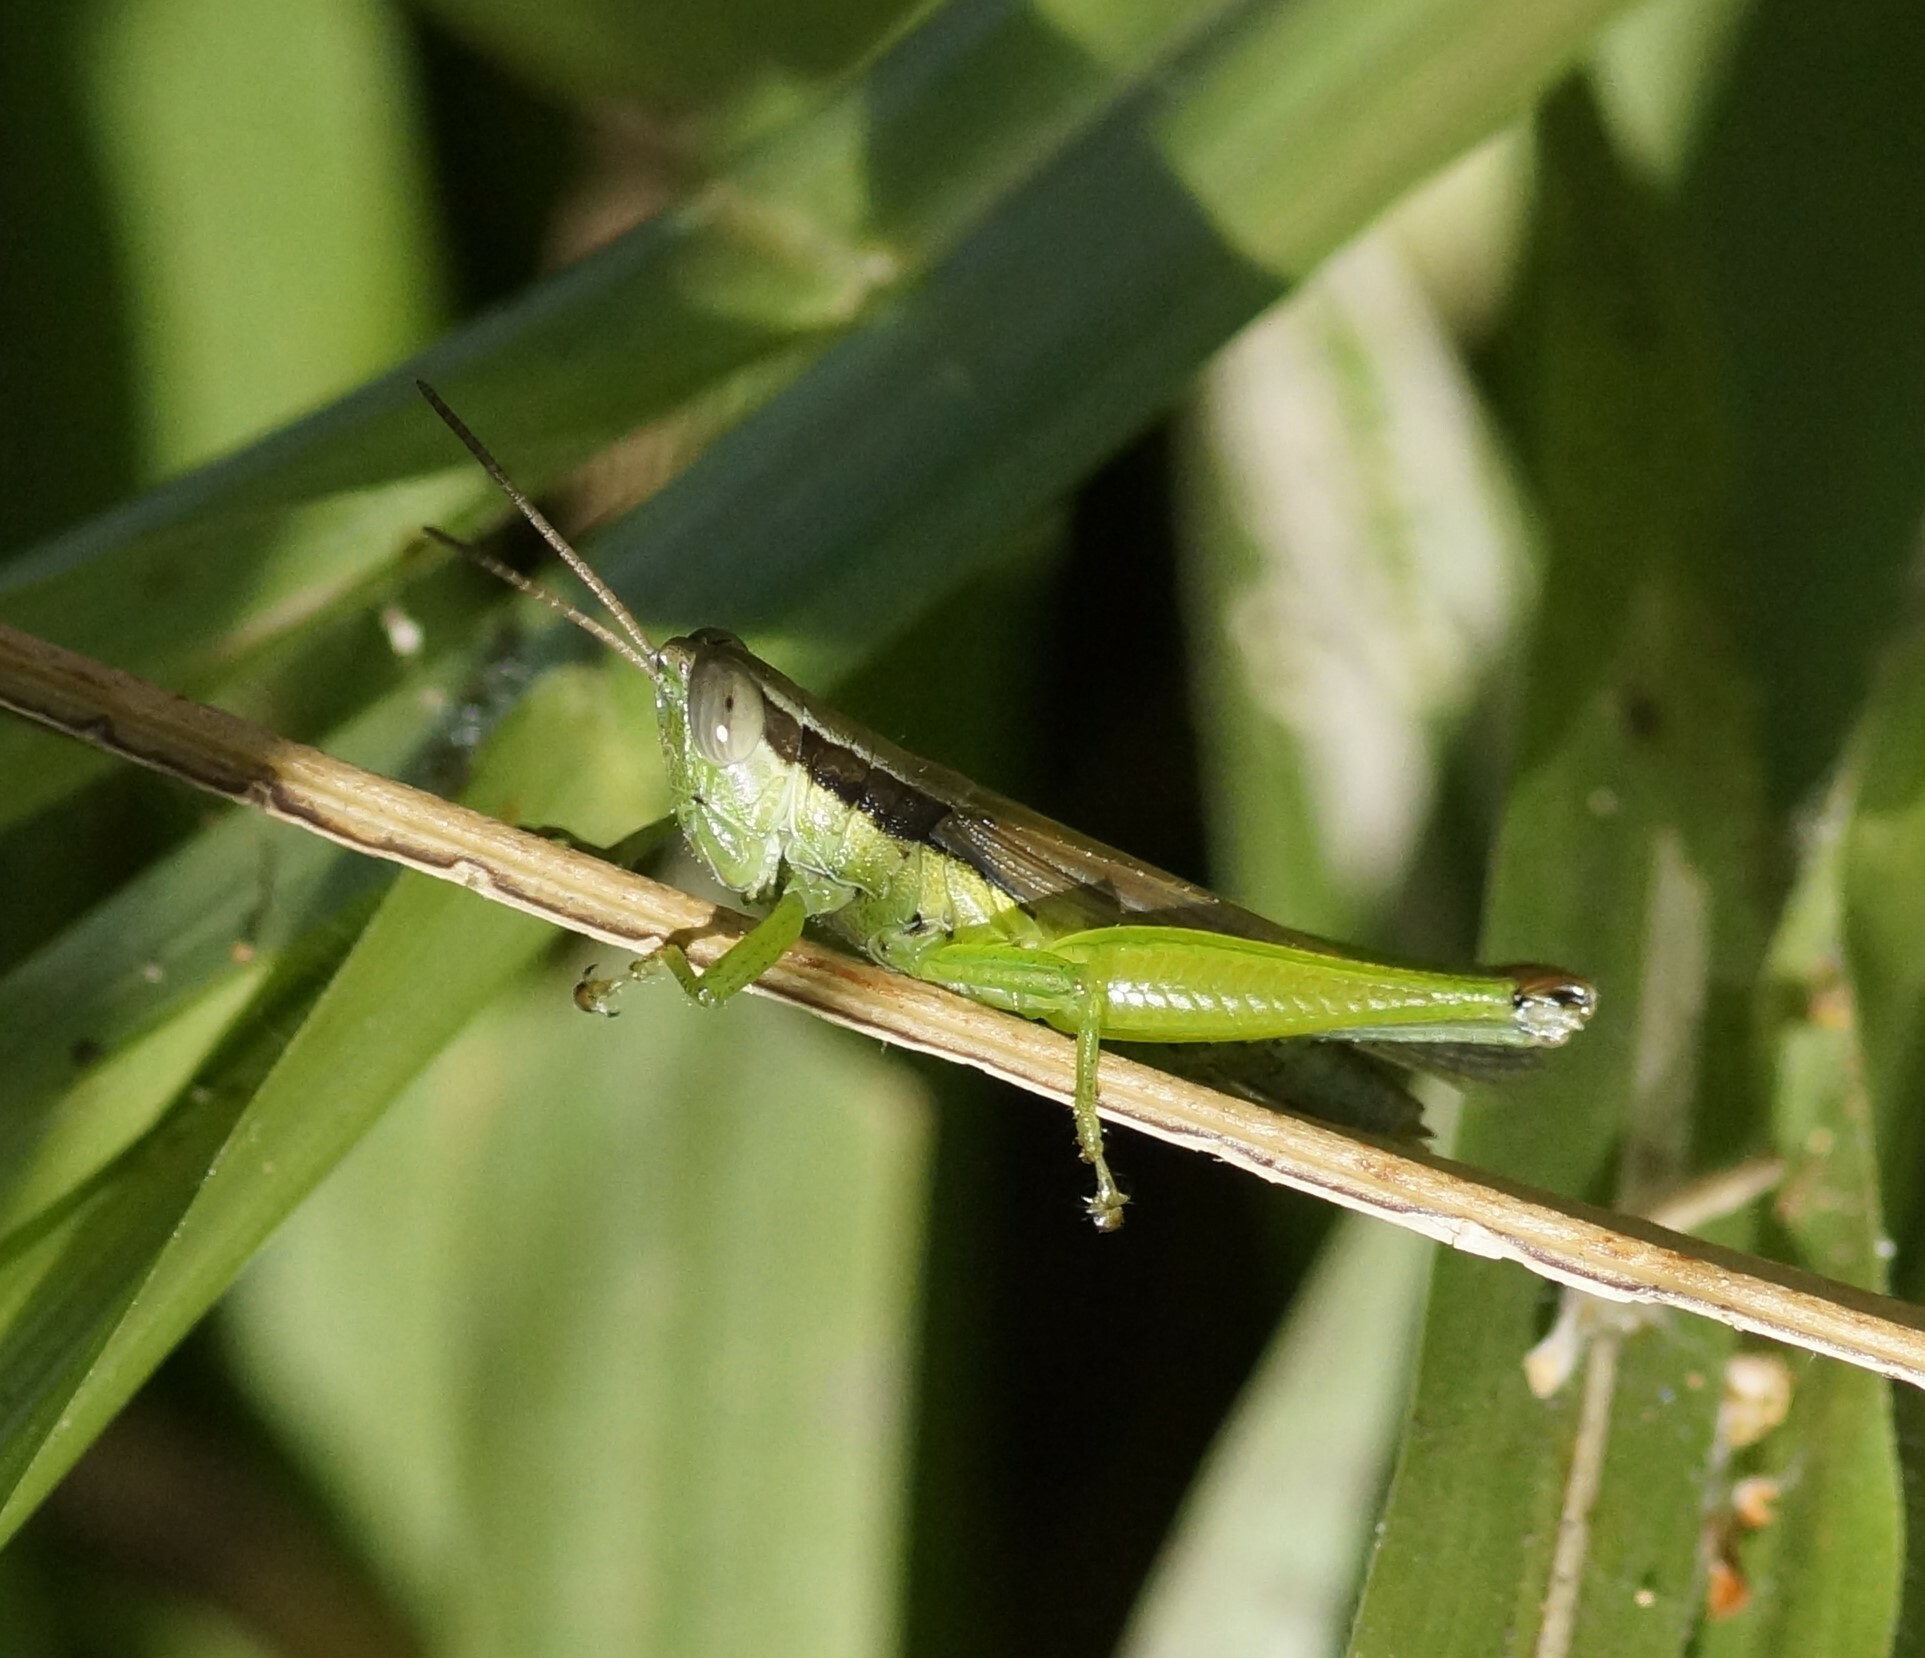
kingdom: Animalia
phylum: Arthropoda
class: Insecta
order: Orthoptera
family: Acrididae
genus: Oxya
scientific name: Oxya japonica
